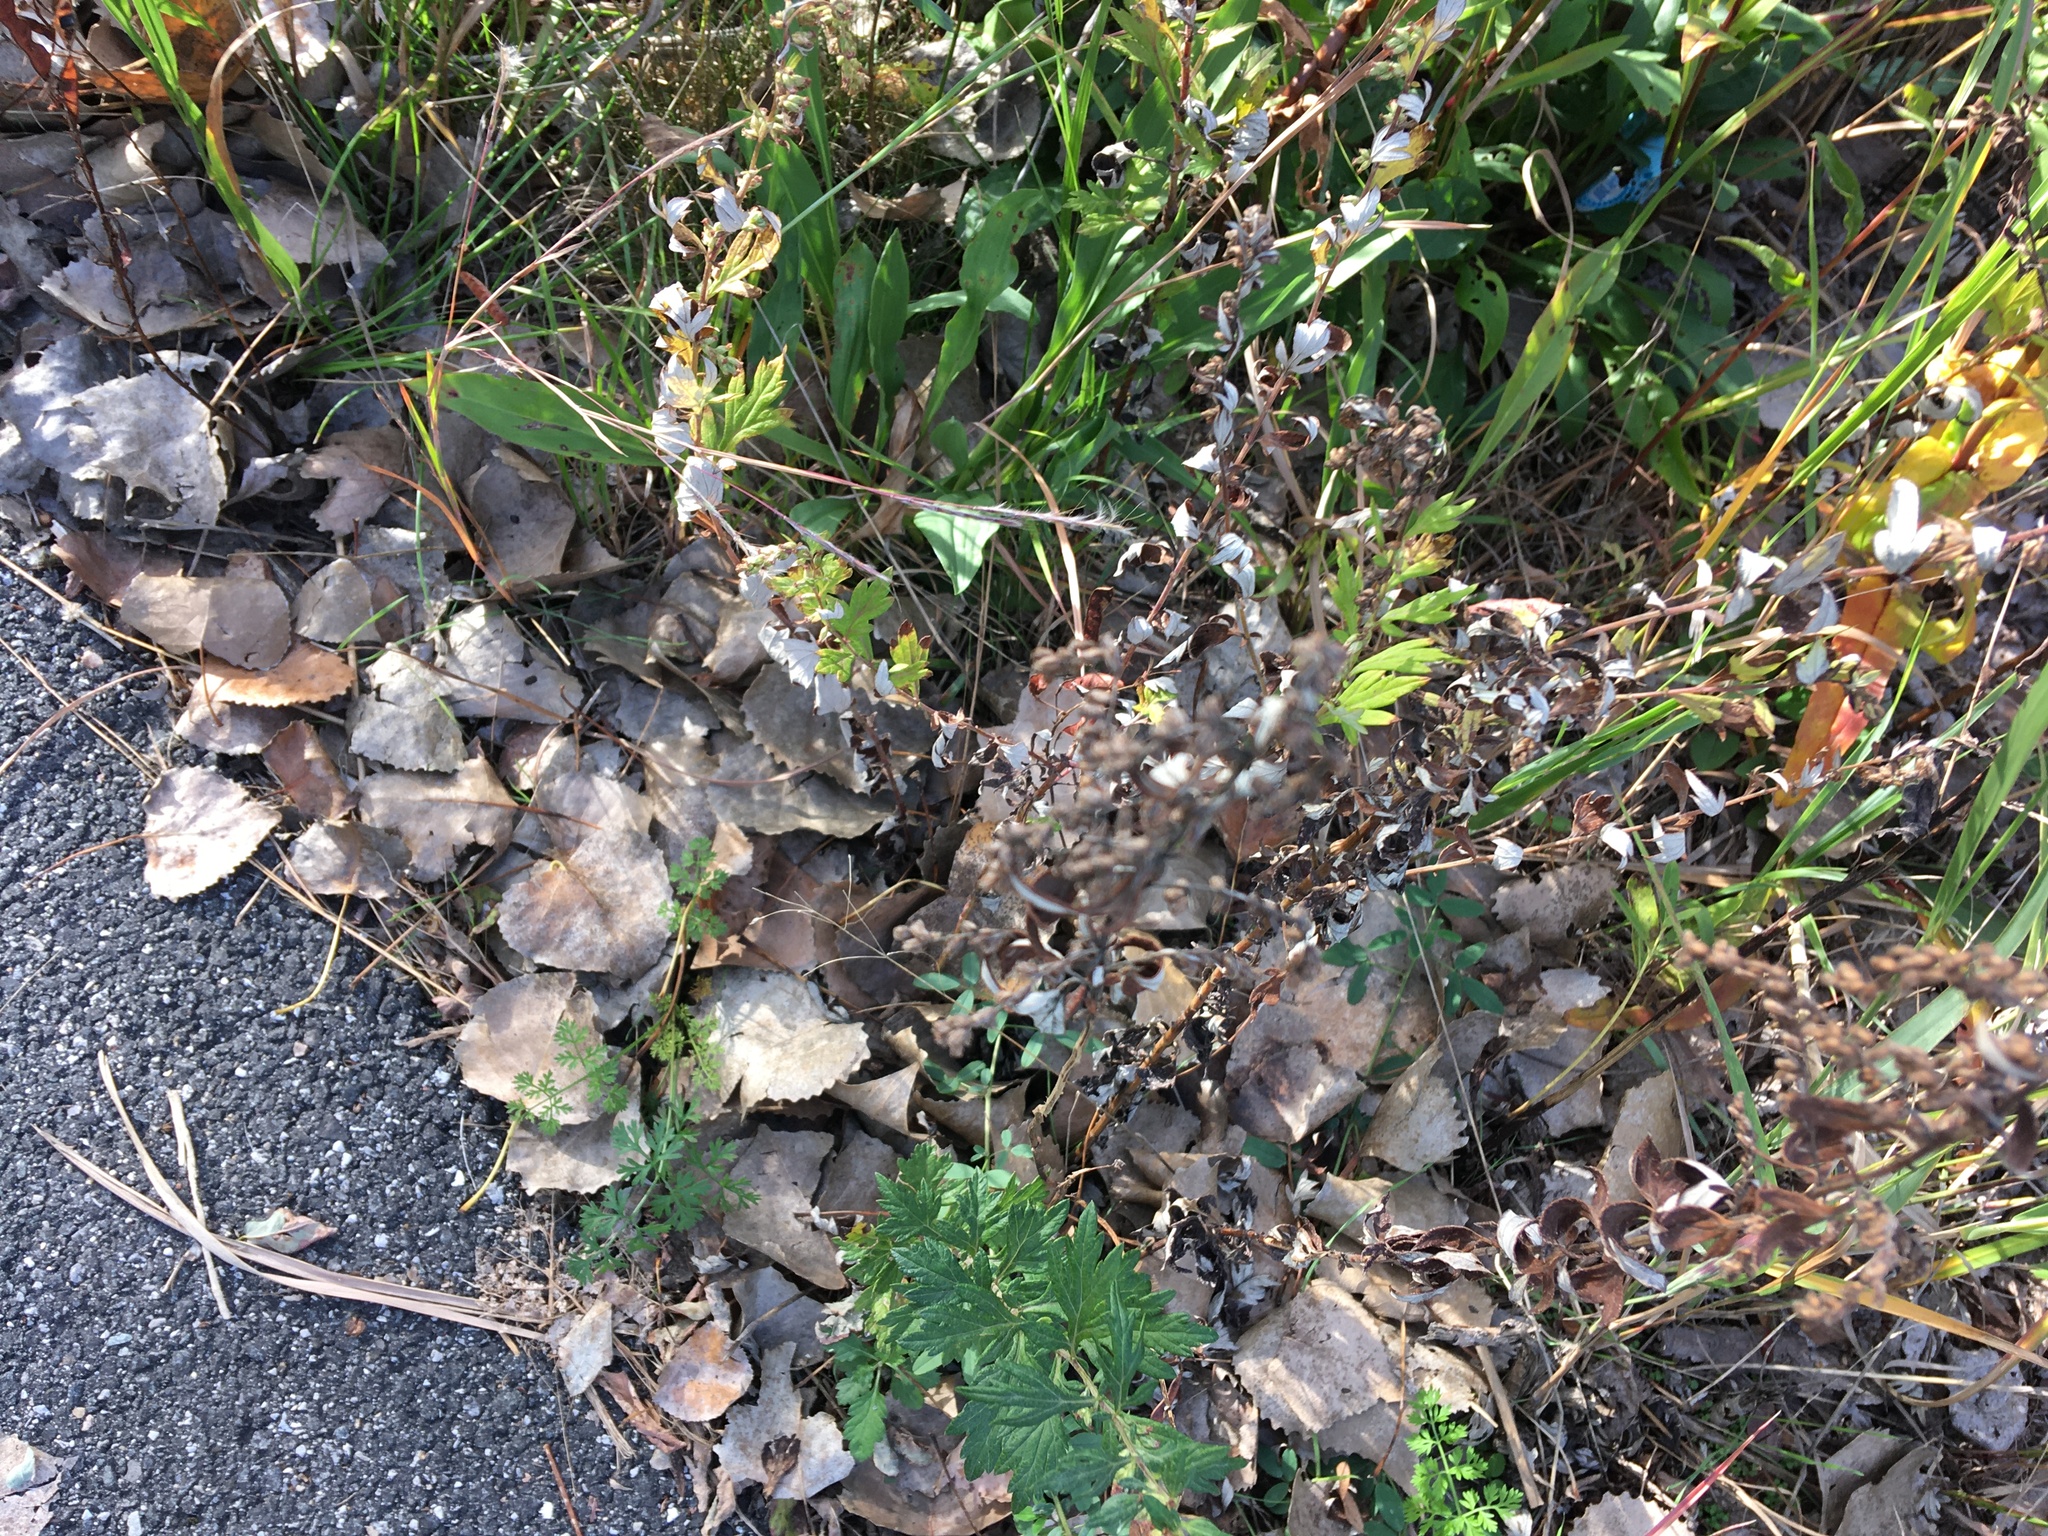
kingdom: Plantae
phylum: Tracheophyta
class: Magnoliopsida
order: Asterales
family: Asteraceae
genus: Artemisia
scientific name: Artemisia vulgaris
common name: Mugwort
